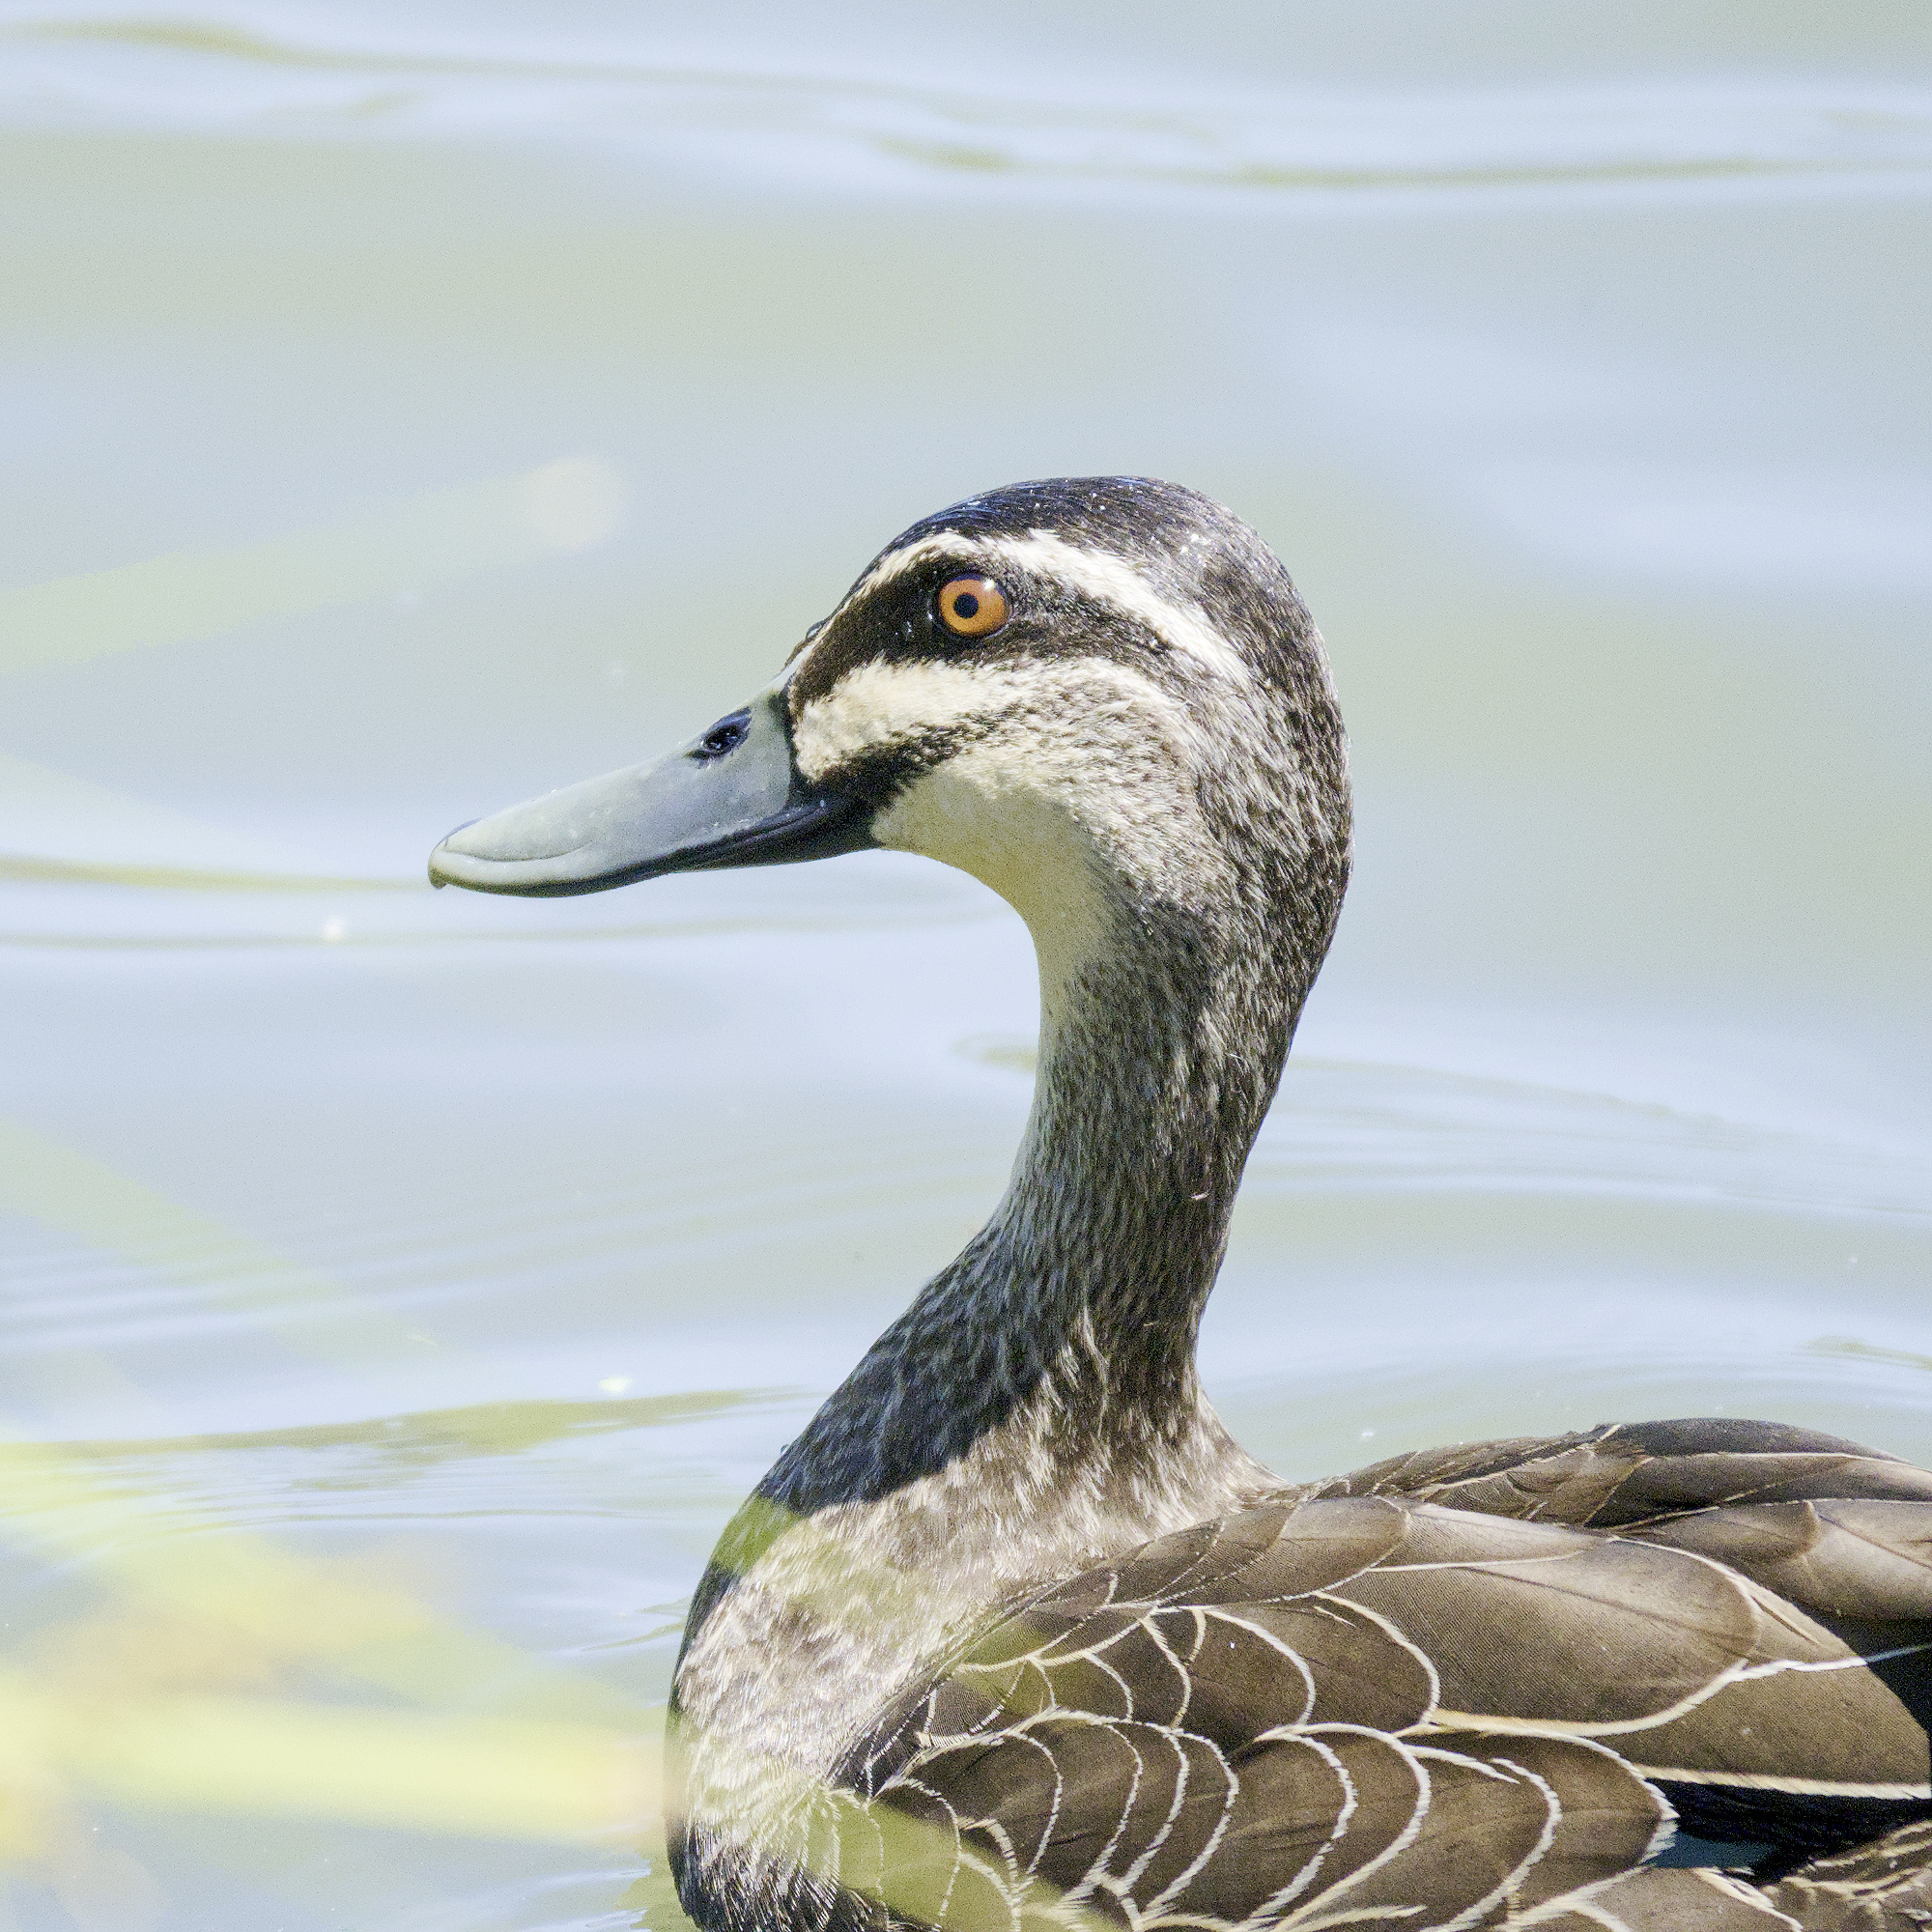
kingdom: Animalia
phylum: Chordata
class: Aves
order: Anseriformes
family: Anatidae
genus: Anas
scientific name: Anas superciliosa
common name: Pacific black duck
